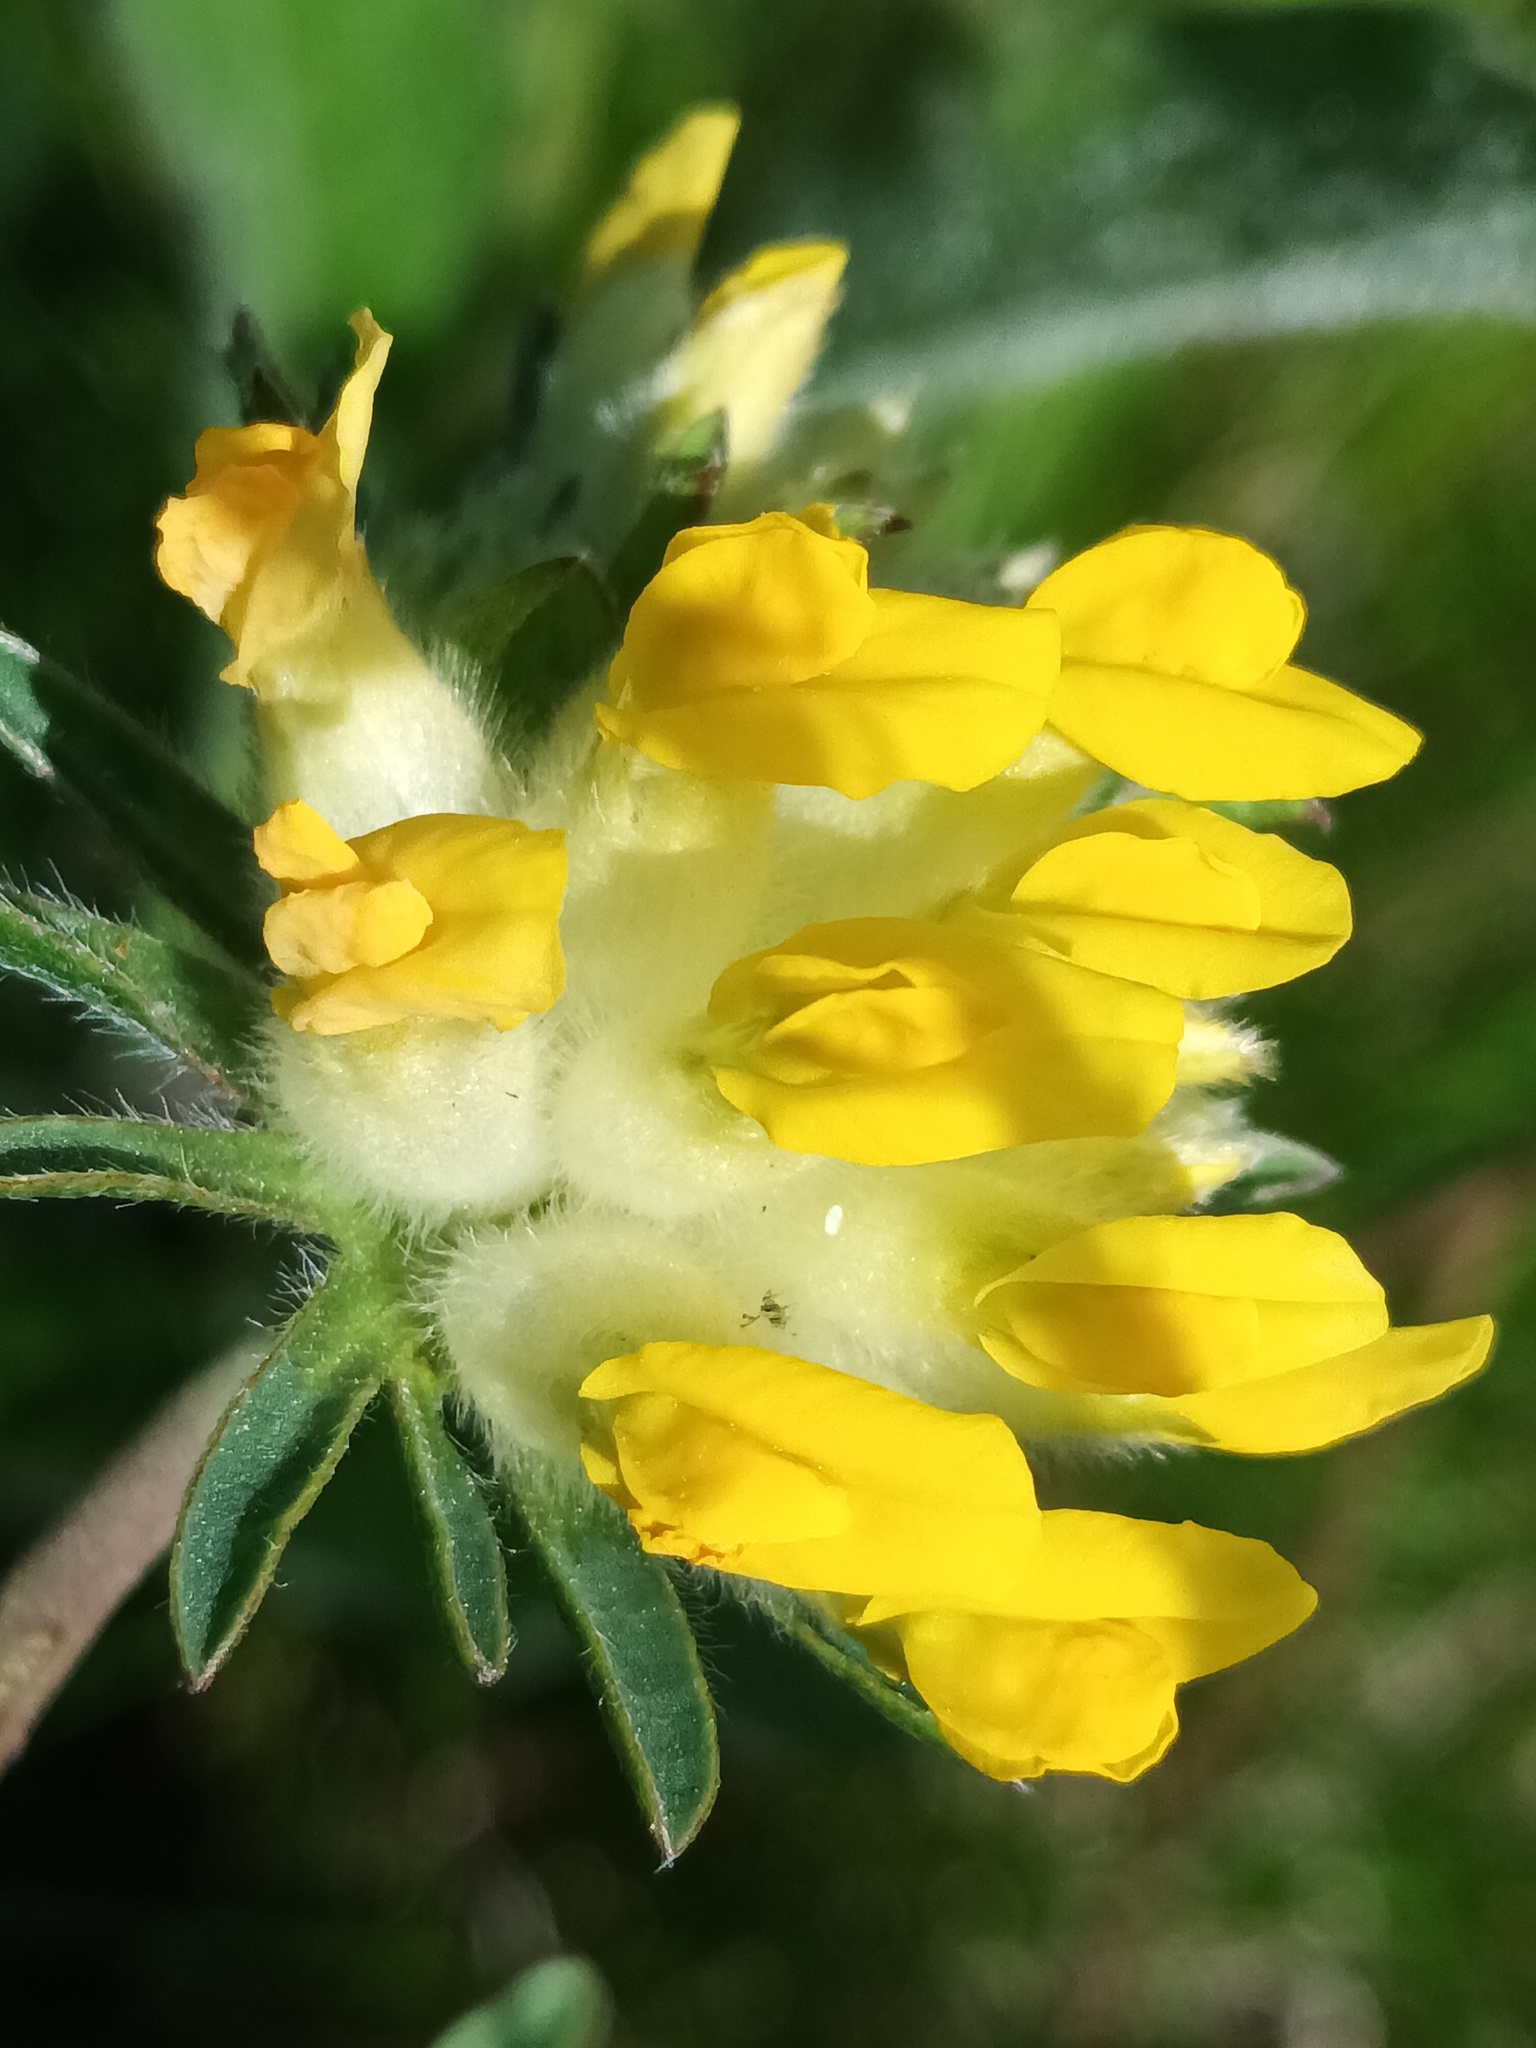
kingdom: Plantae
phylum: Tracheophyta
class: Magnoliopsida
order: Fabales
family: Fabaceae
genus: Anthyllis
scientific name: Anthyllis vulneraria
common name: Kidney vetch
